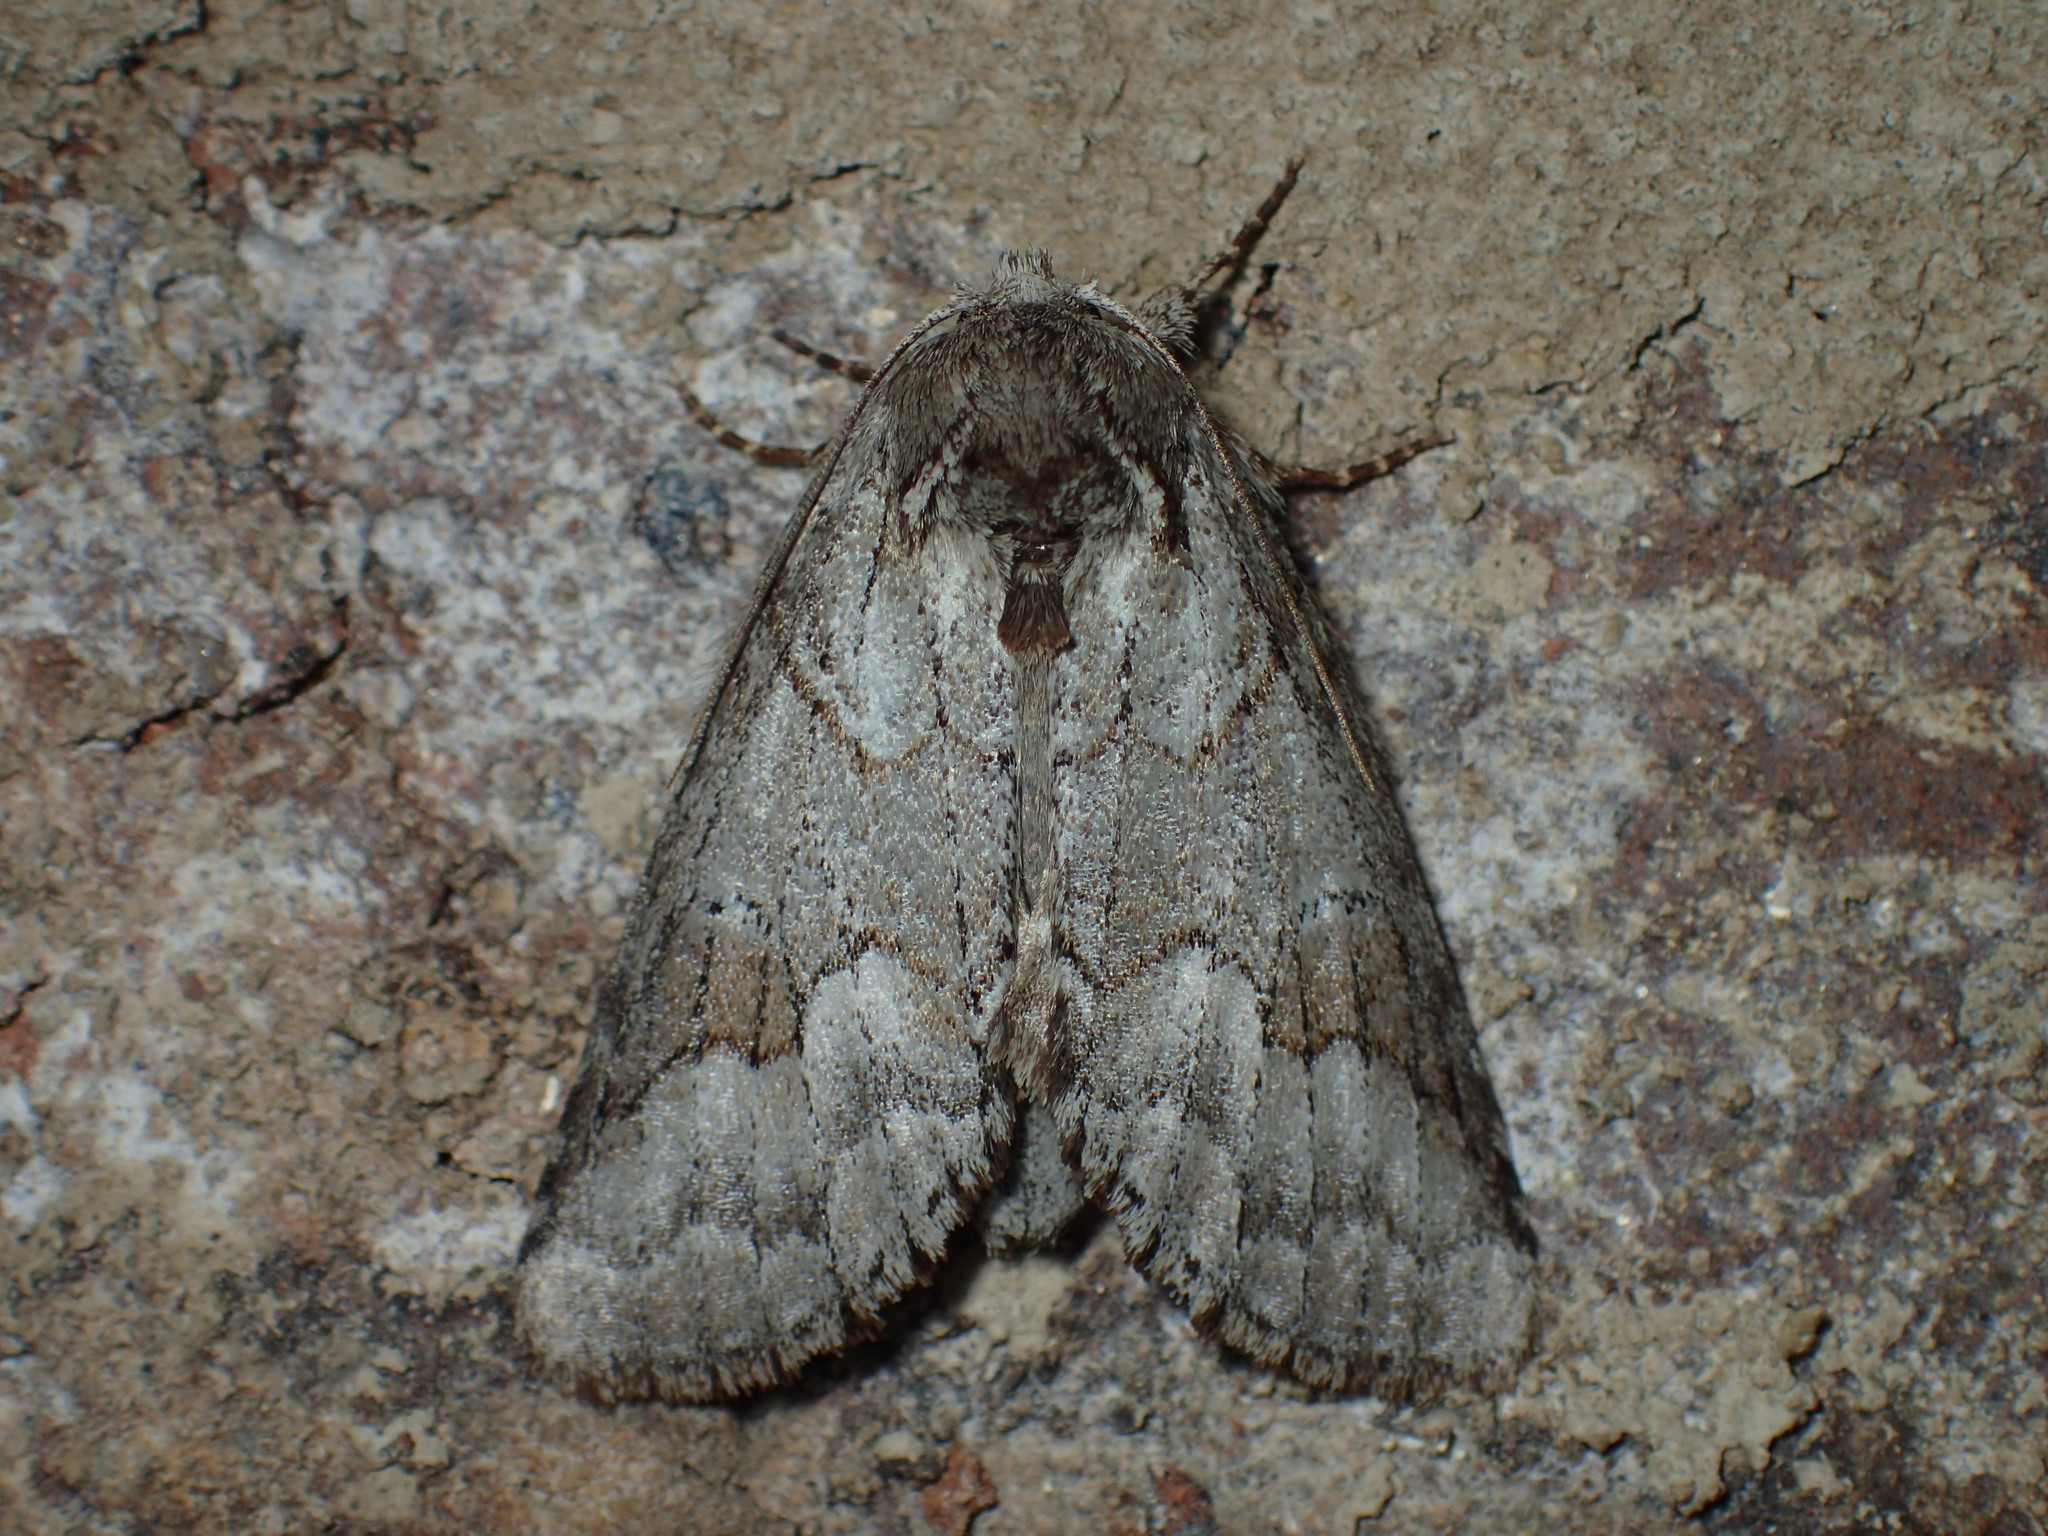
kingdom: Animalia
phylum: Arthropoda
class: Insecta
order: Lepidoptera
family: Notodontidae
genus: Lochmaeus
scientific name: Lochmaeus bilineata
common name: Double-lined prominent
